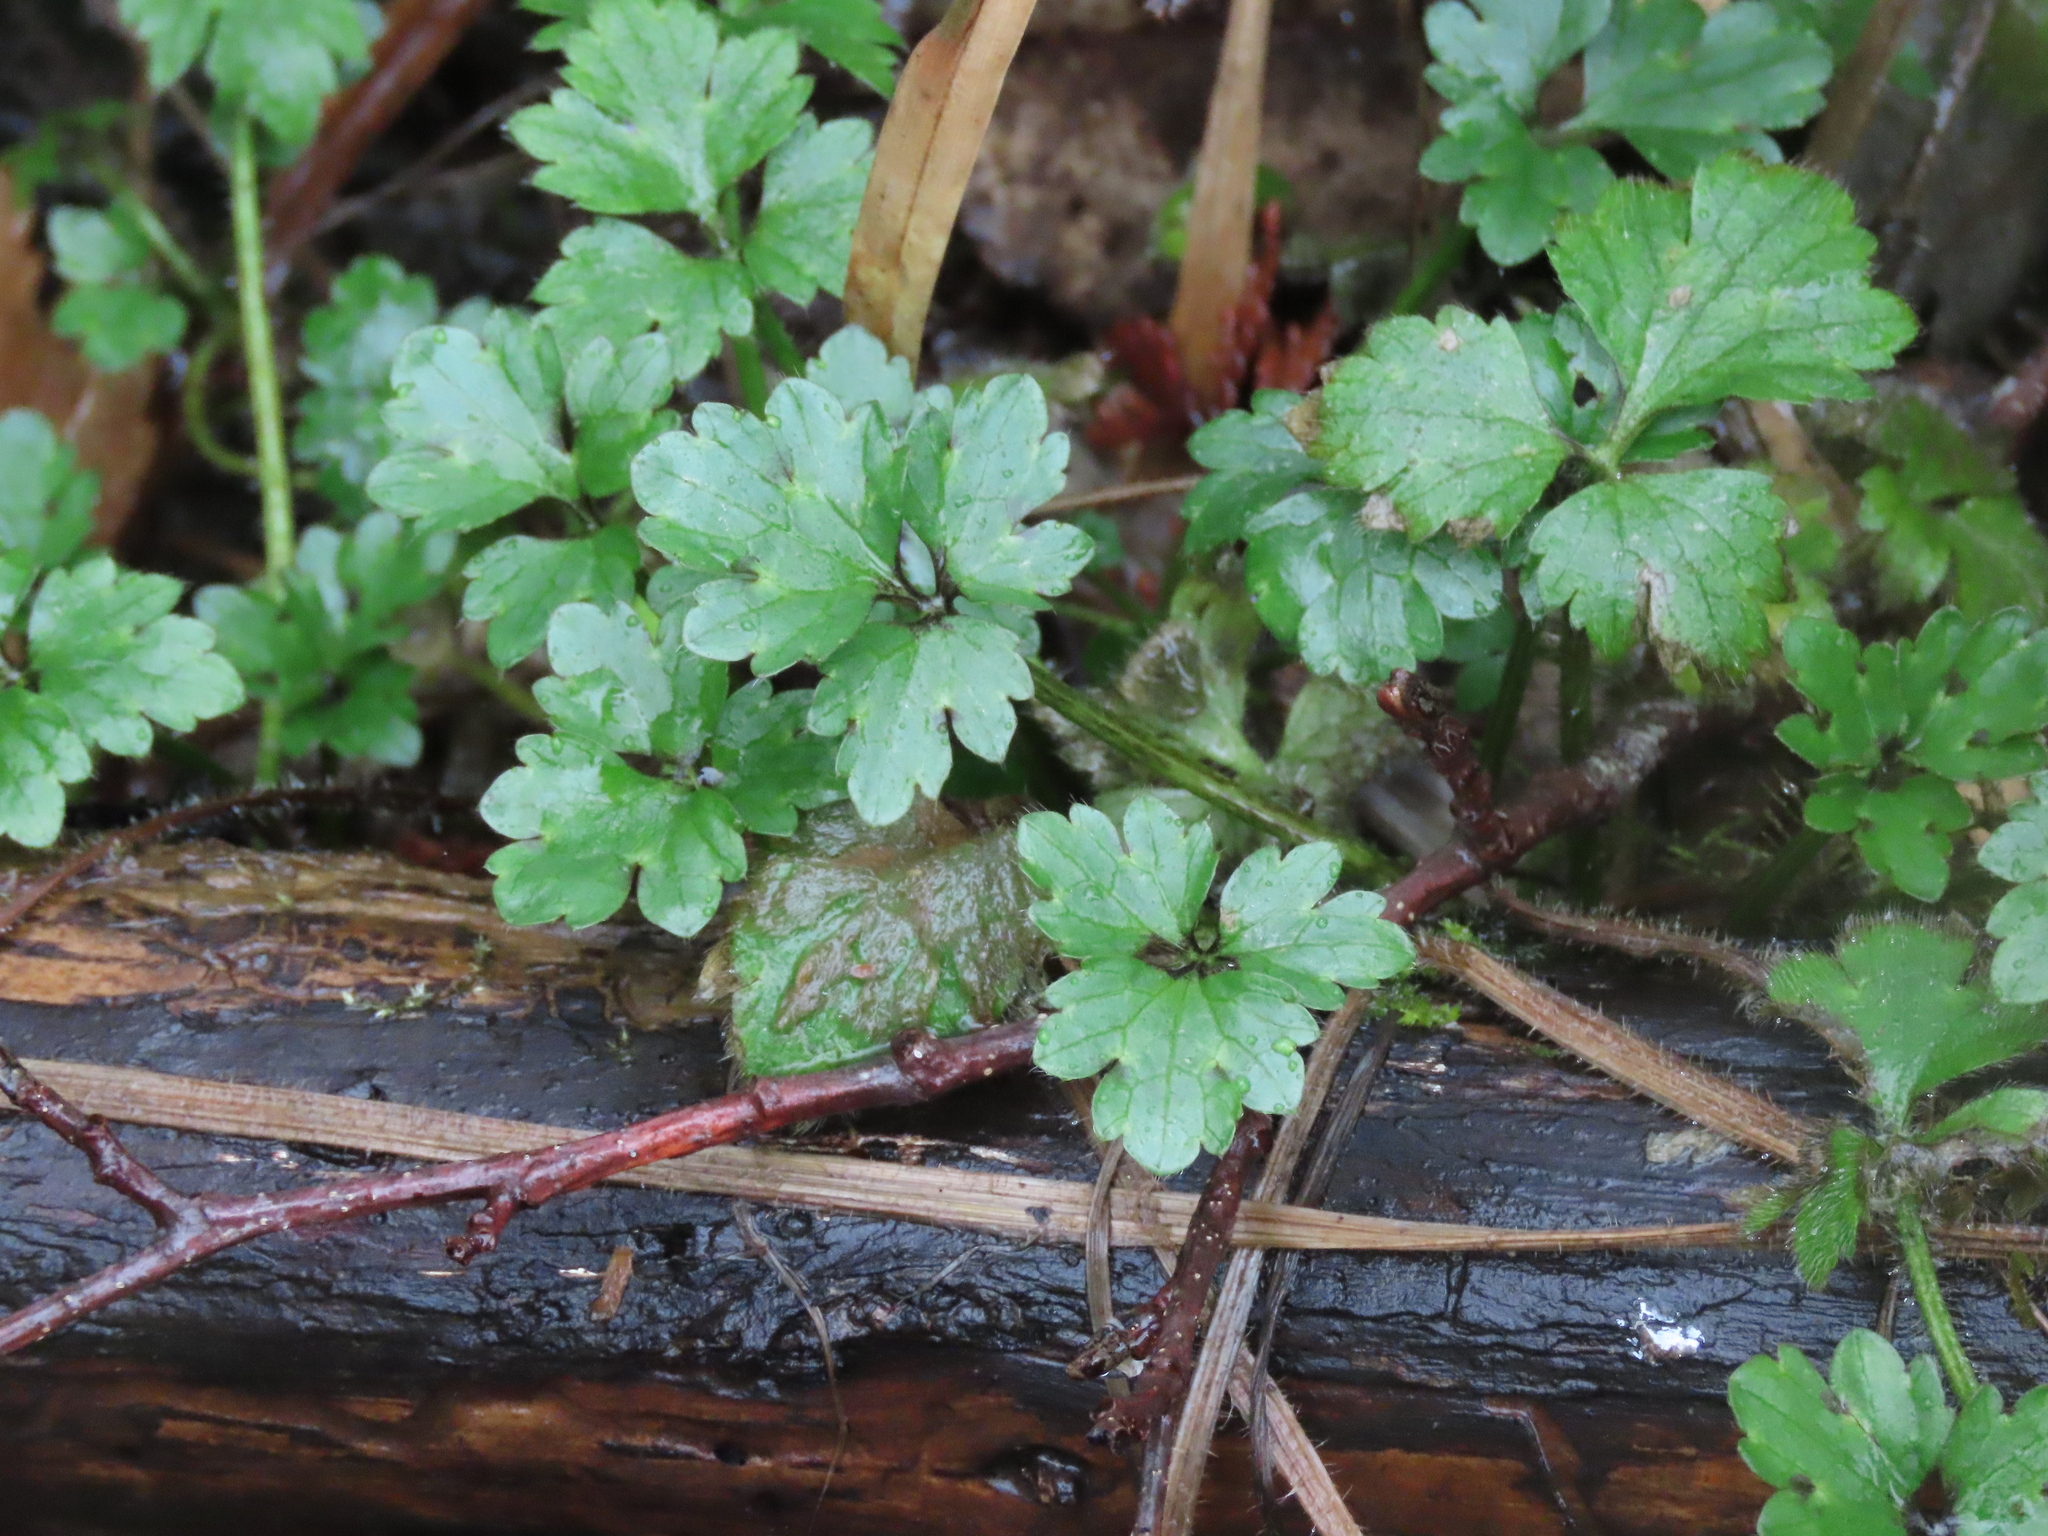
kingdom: Plantae
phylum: Tracheophyta
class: Magnoliopsida
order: Ranunculales
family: Ranunculaceae
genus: Ranunculus
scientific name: Ranunculus repens
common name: Creeping buttercup
